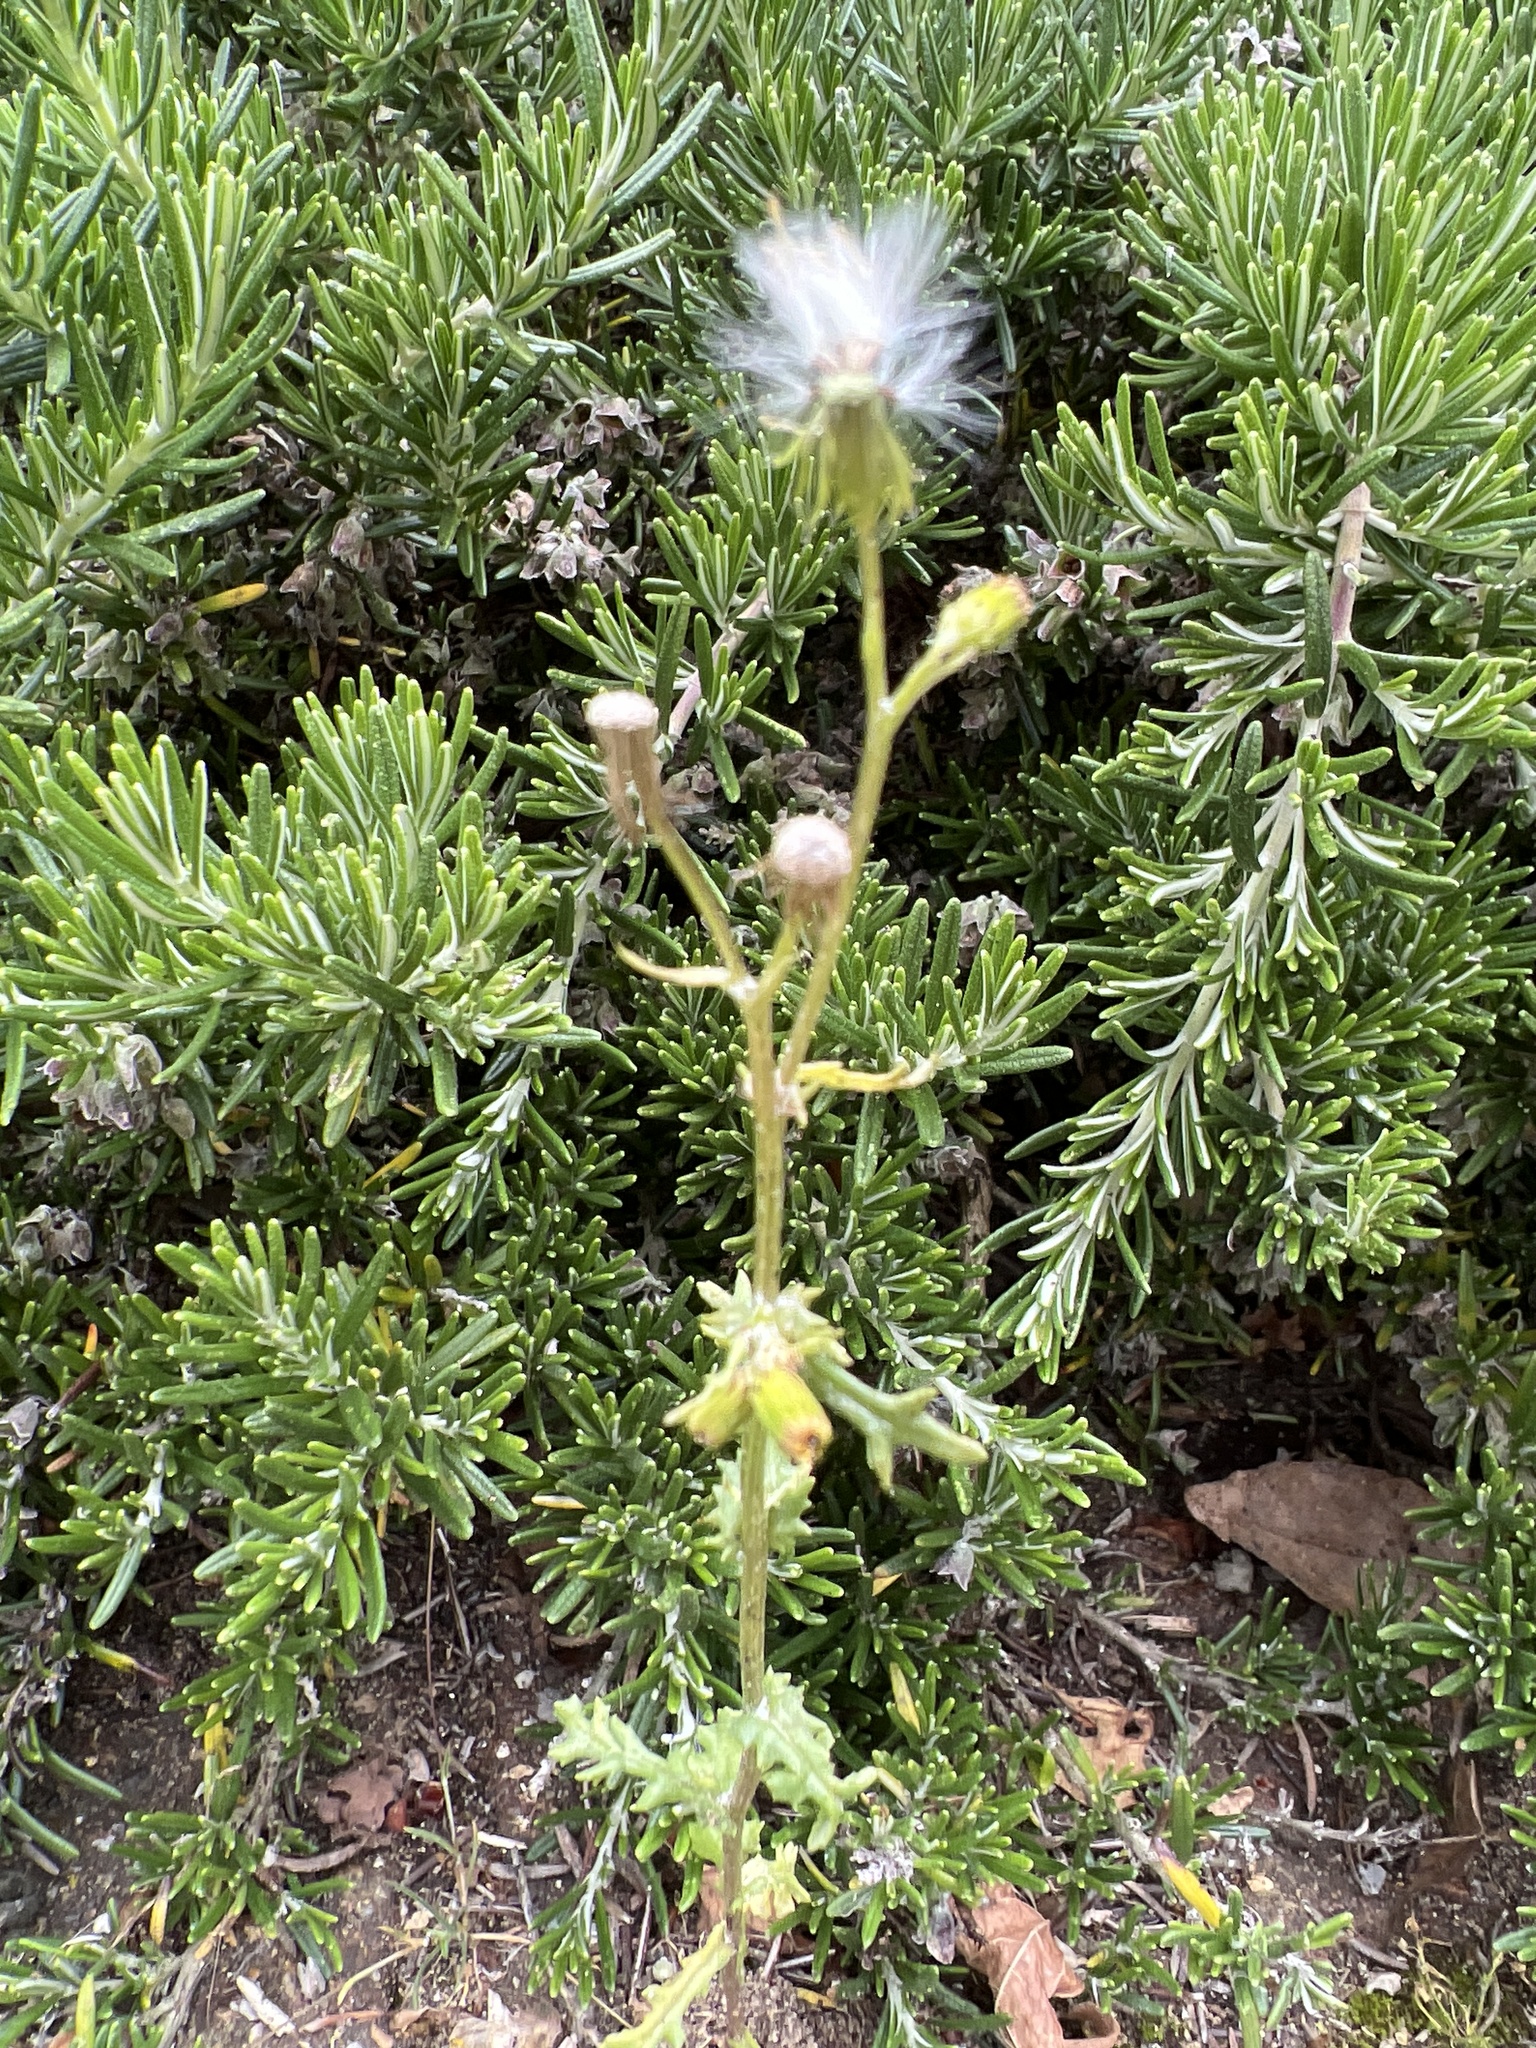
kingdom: Plantae
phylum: Tracheophyta
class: Magnoliopsida
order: Asterales
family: Asteraceae
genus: Senecio
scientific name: Senecio vulgaris
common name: Old-man-in-the-spring
